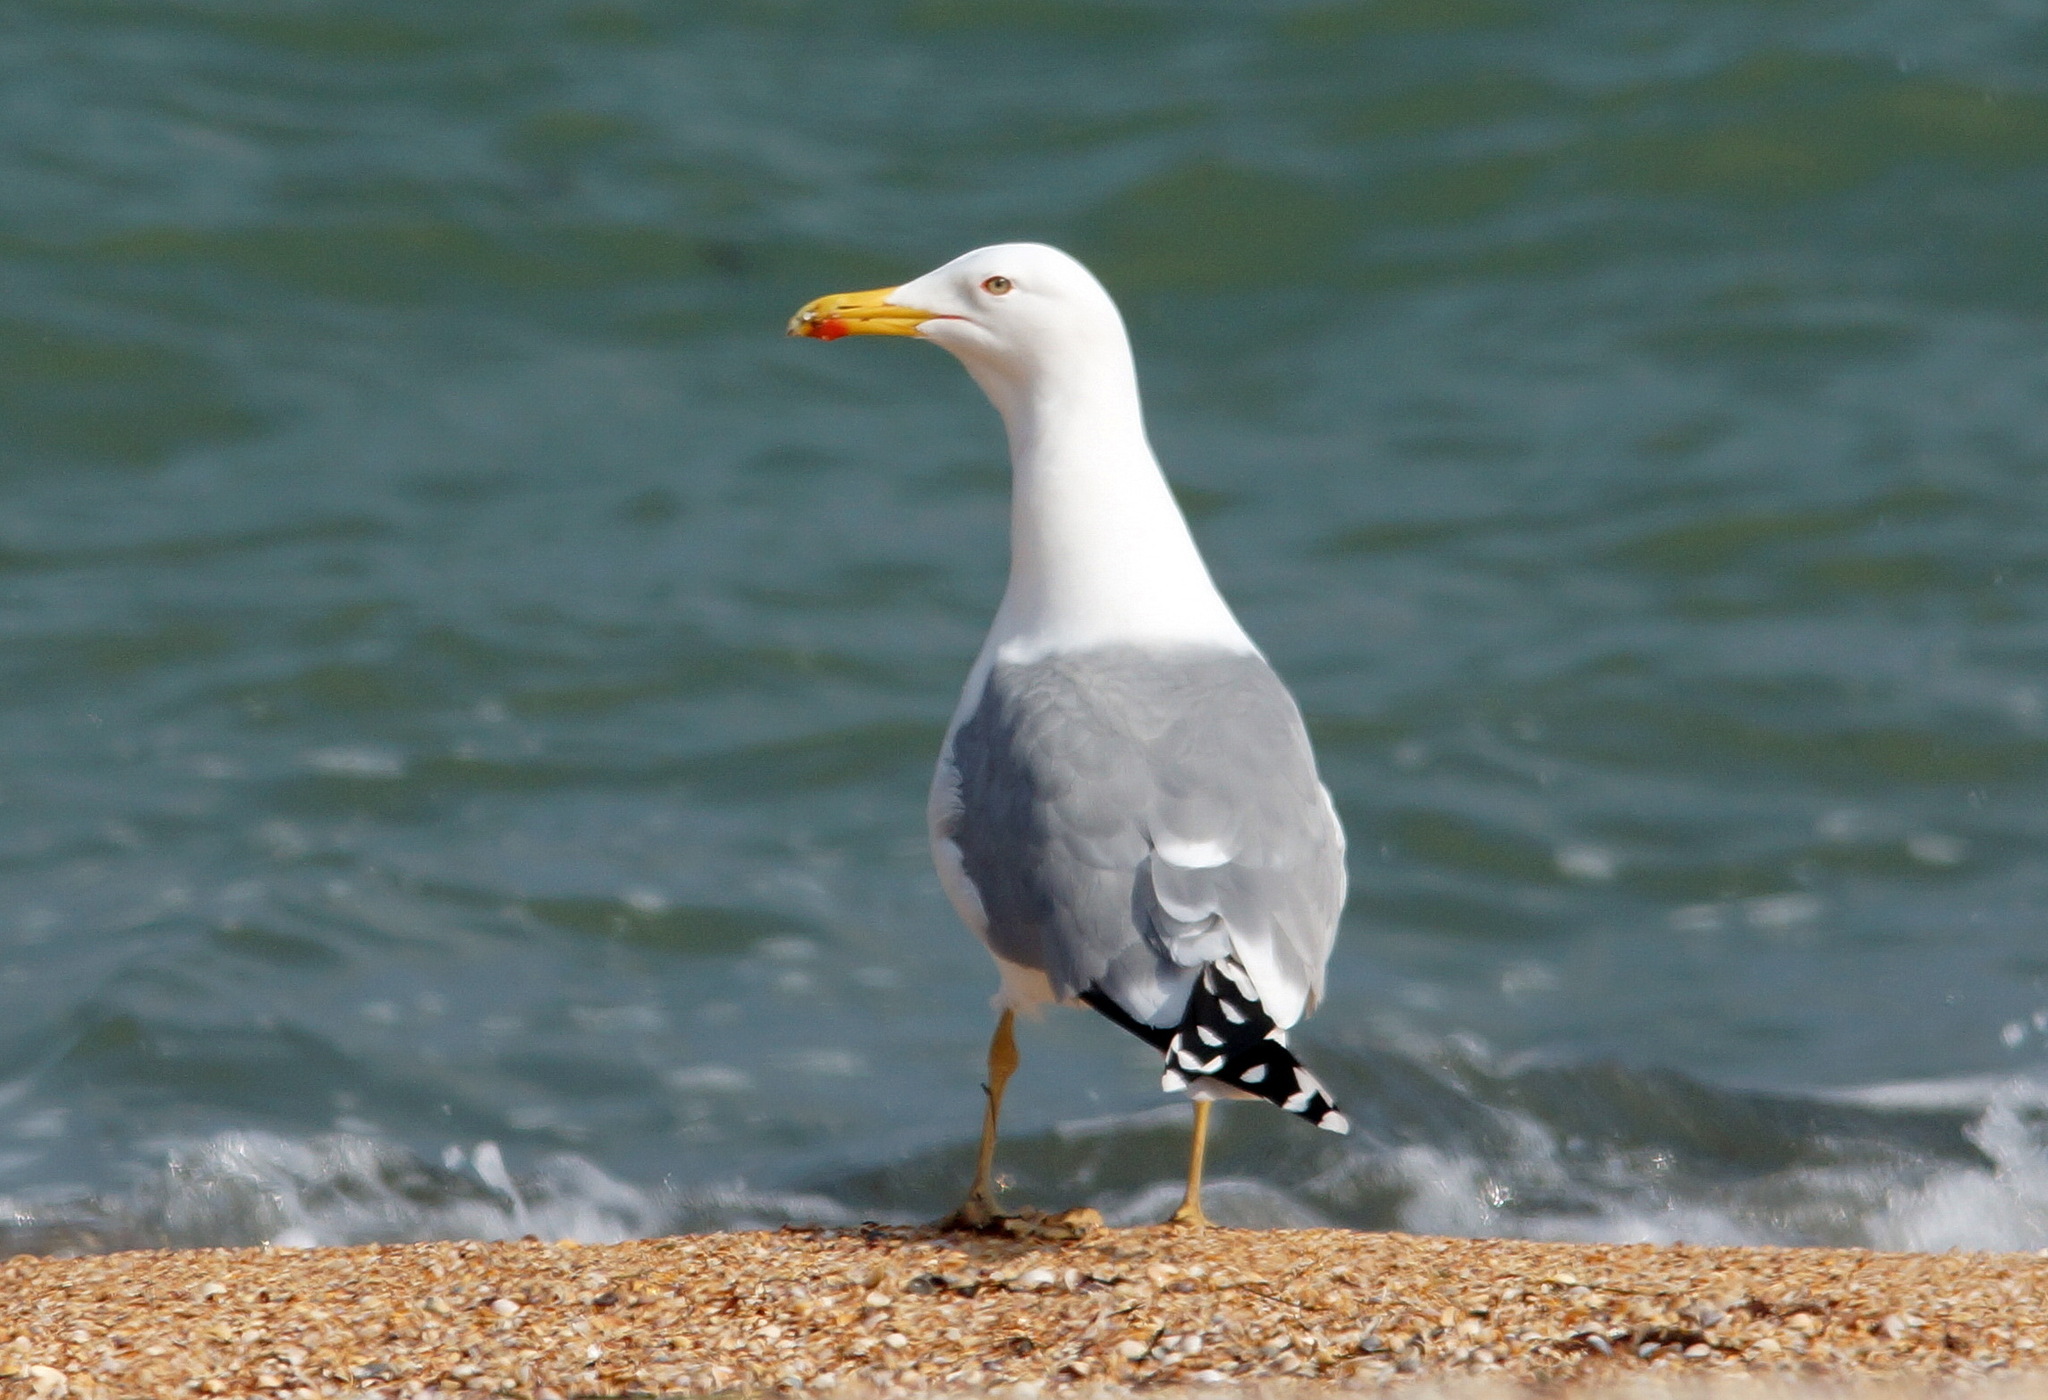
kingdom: Animalia
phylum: Chordata
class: Aves
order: Charadriiformes
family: Laridae
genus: Larus
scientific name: Larus cachinnans
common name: Caspian gull
